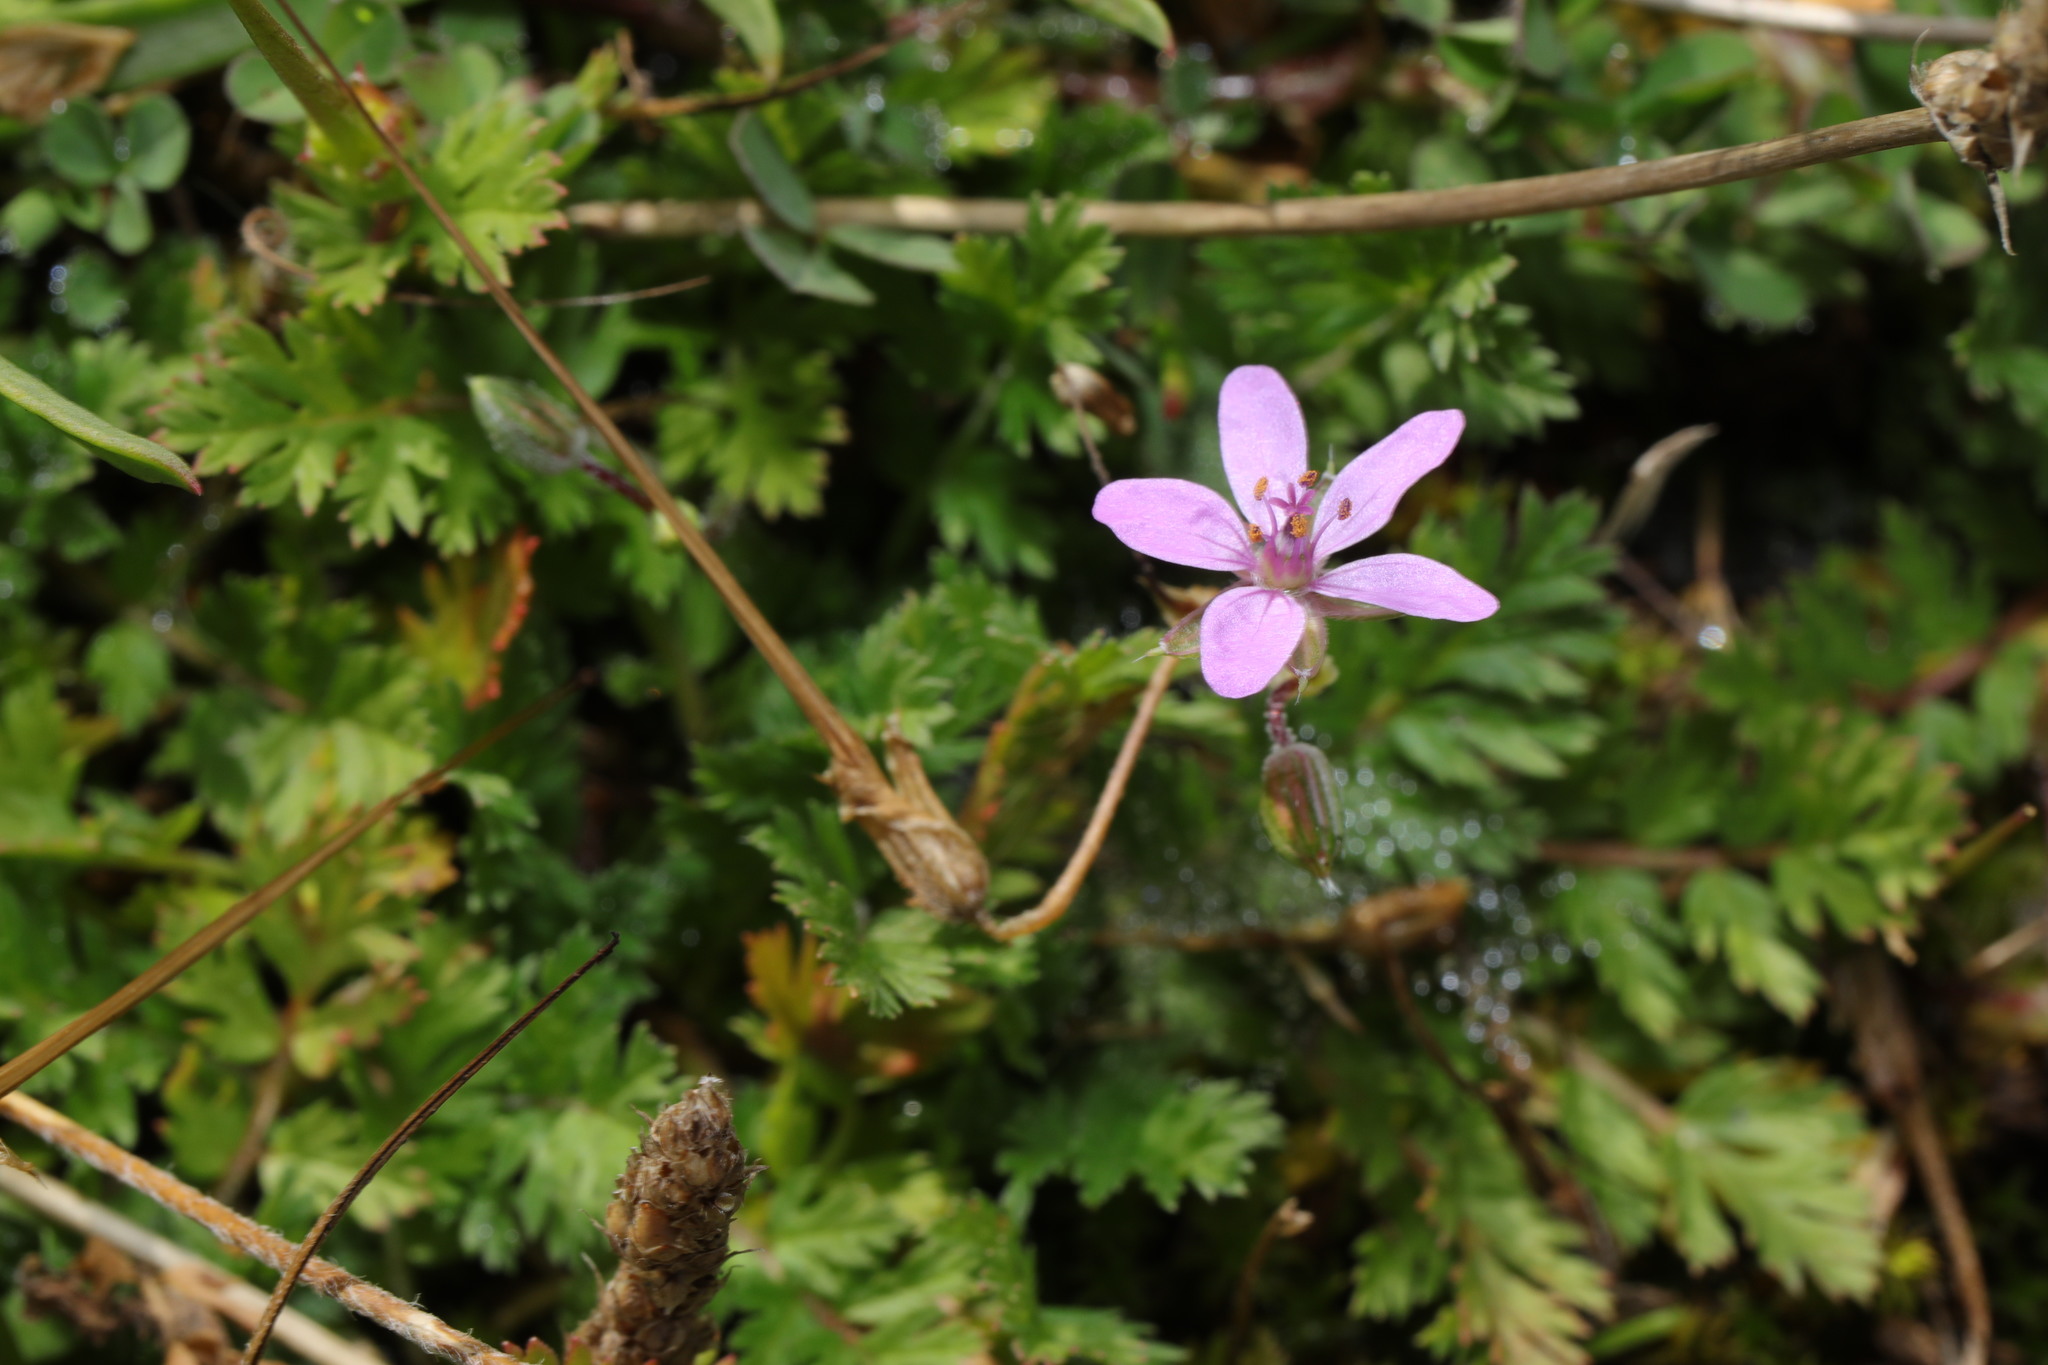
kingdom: Plantae
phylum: Tracheophyta
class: Magnoliopsida
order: Geraniales
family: Geraniaceae
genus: Erodium
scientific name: Erodium cicutarium
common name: Common stork's-bill
